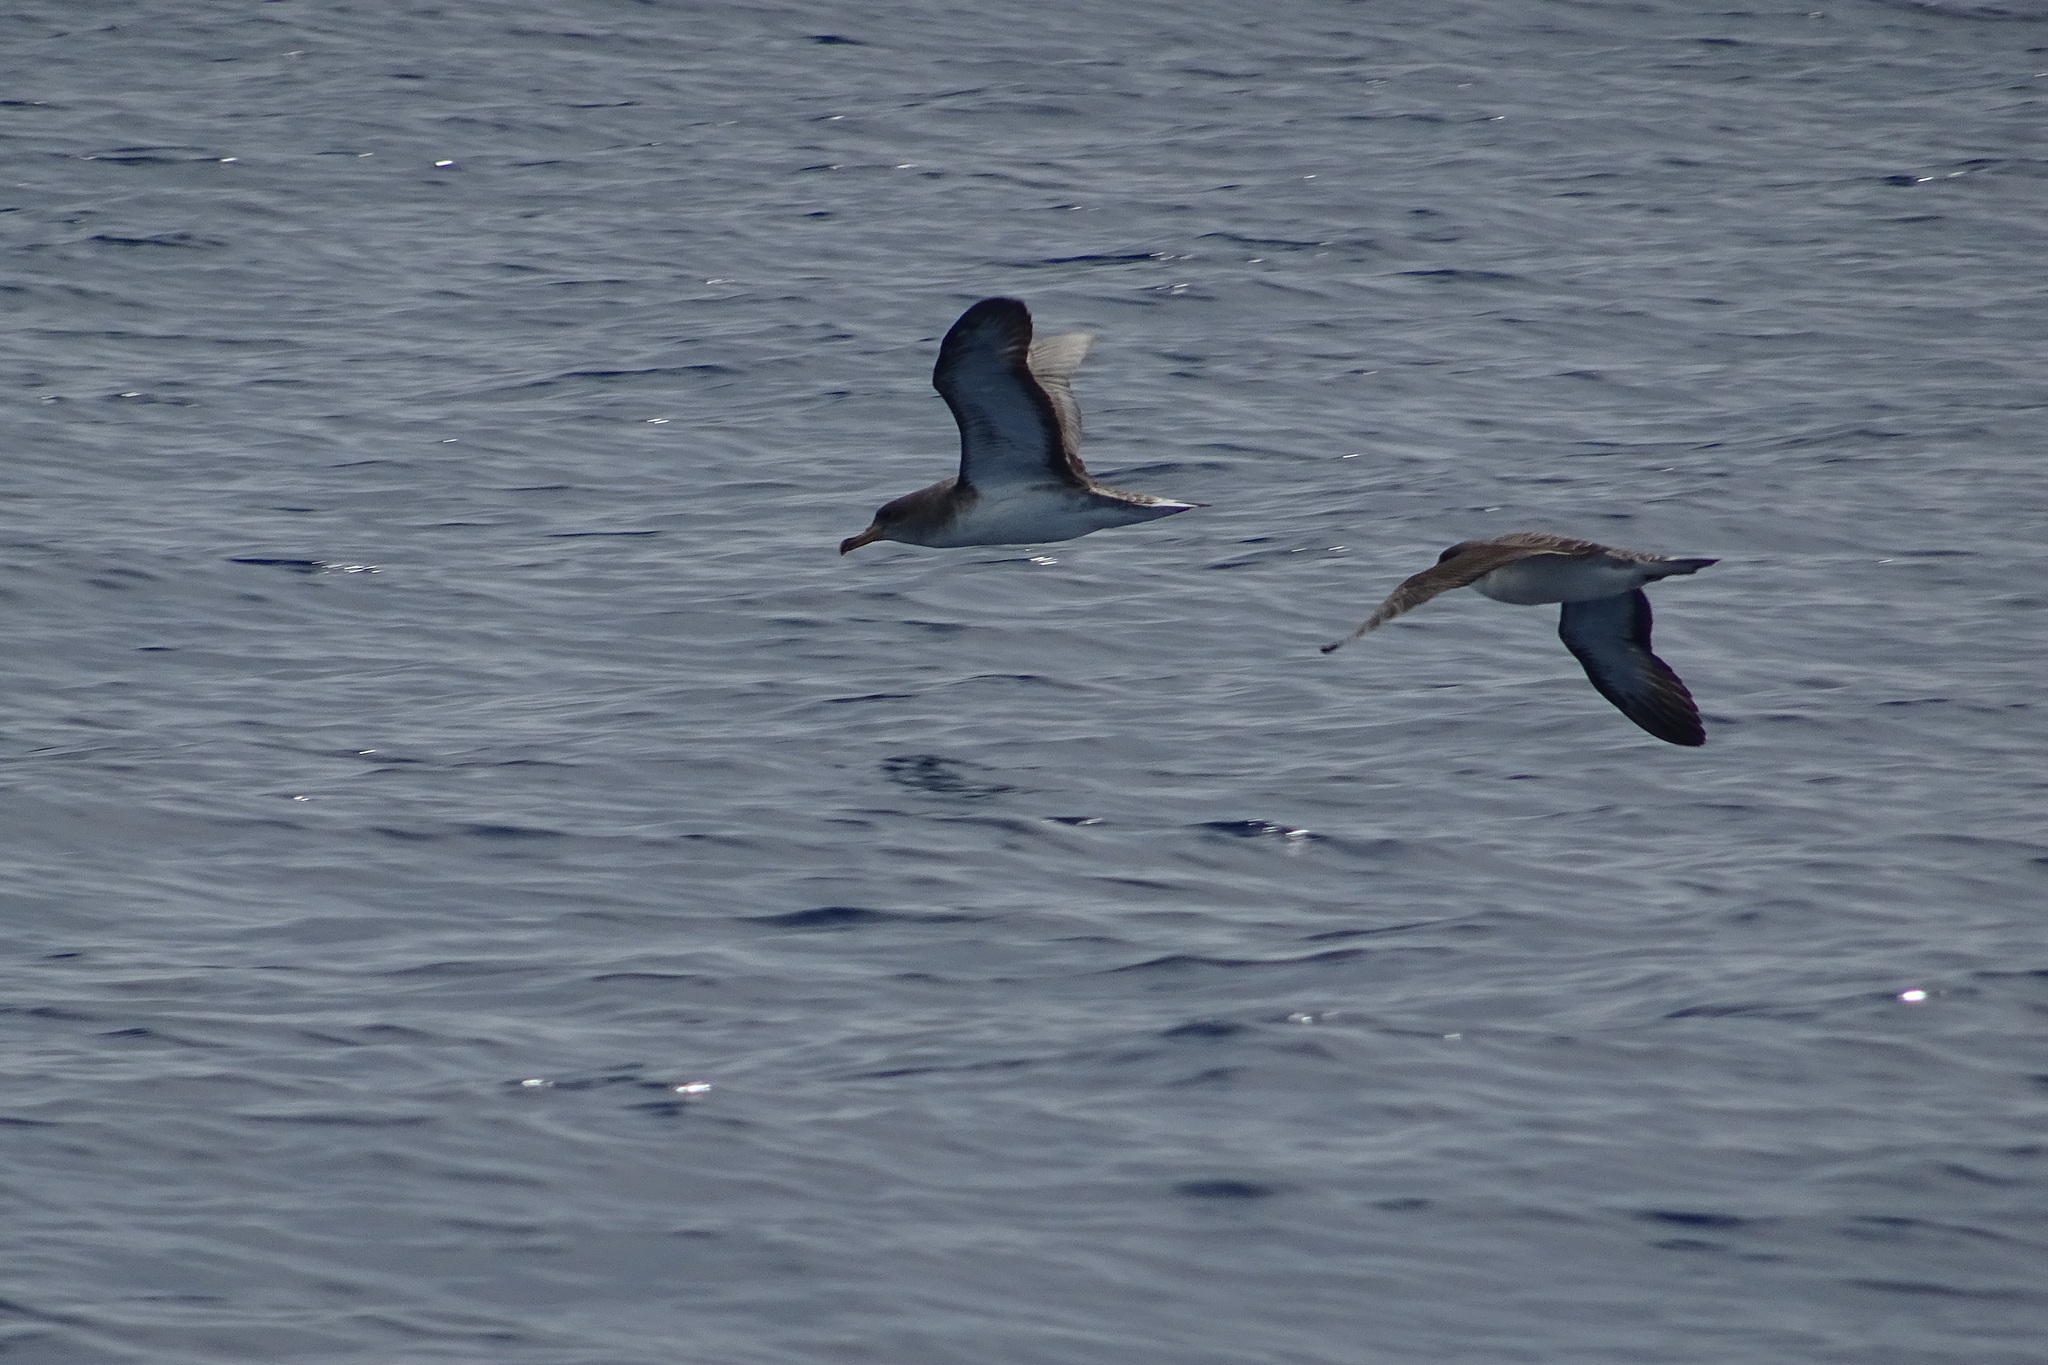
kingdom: Animalia
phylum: Chordata
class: Aves
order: Procellariiformes
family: Procellariidae
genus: Calonectris
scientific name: Calonectris diomedea
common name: Cory's shearwater
